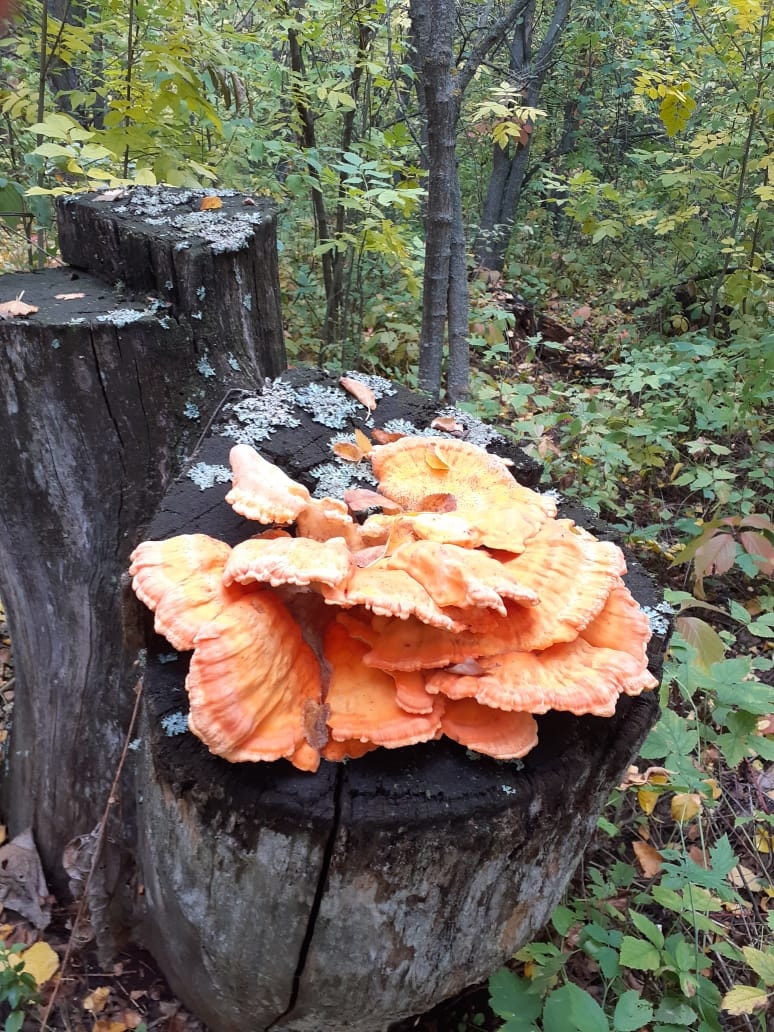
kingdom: Fungi
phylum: Basidiomycota
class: Agaricomycetes
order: Polyporales
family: Laetiporaceae
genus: Laetiporus
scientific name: Laetiporus sulphureus
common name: Chicken of the woods
